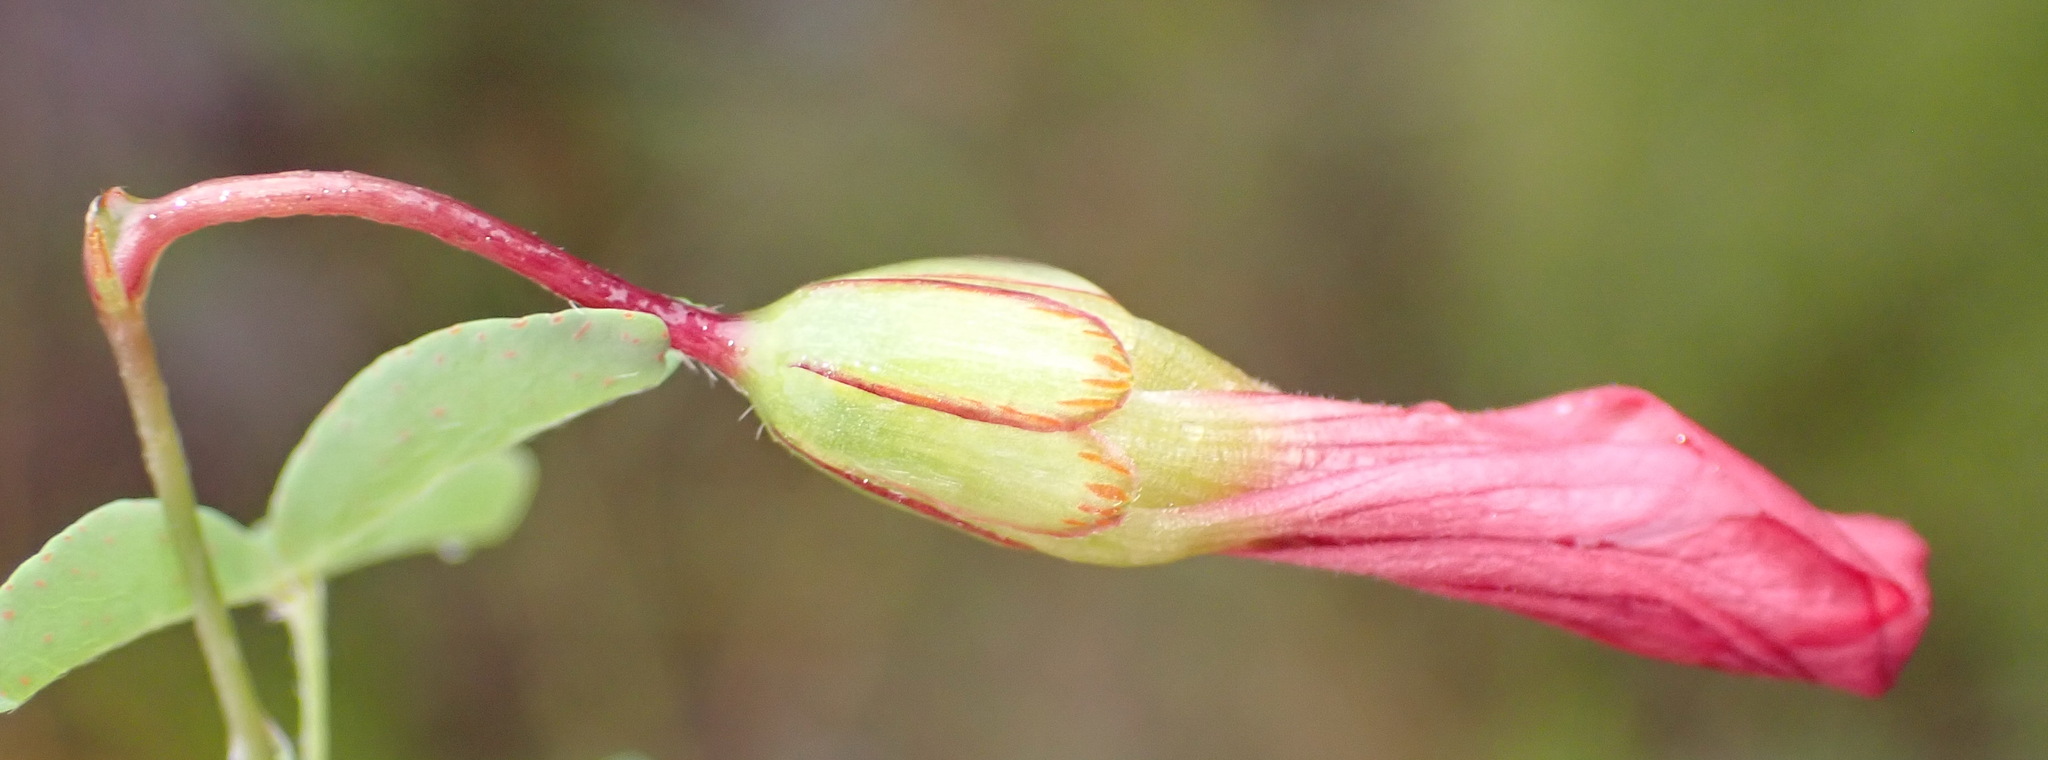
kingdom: Plantae
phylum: Tracheophyta
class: Magnoliopsida
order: Oxalidales
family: Oxalidaceae
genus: Oxalis
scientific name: Oxalis pendulifolia
